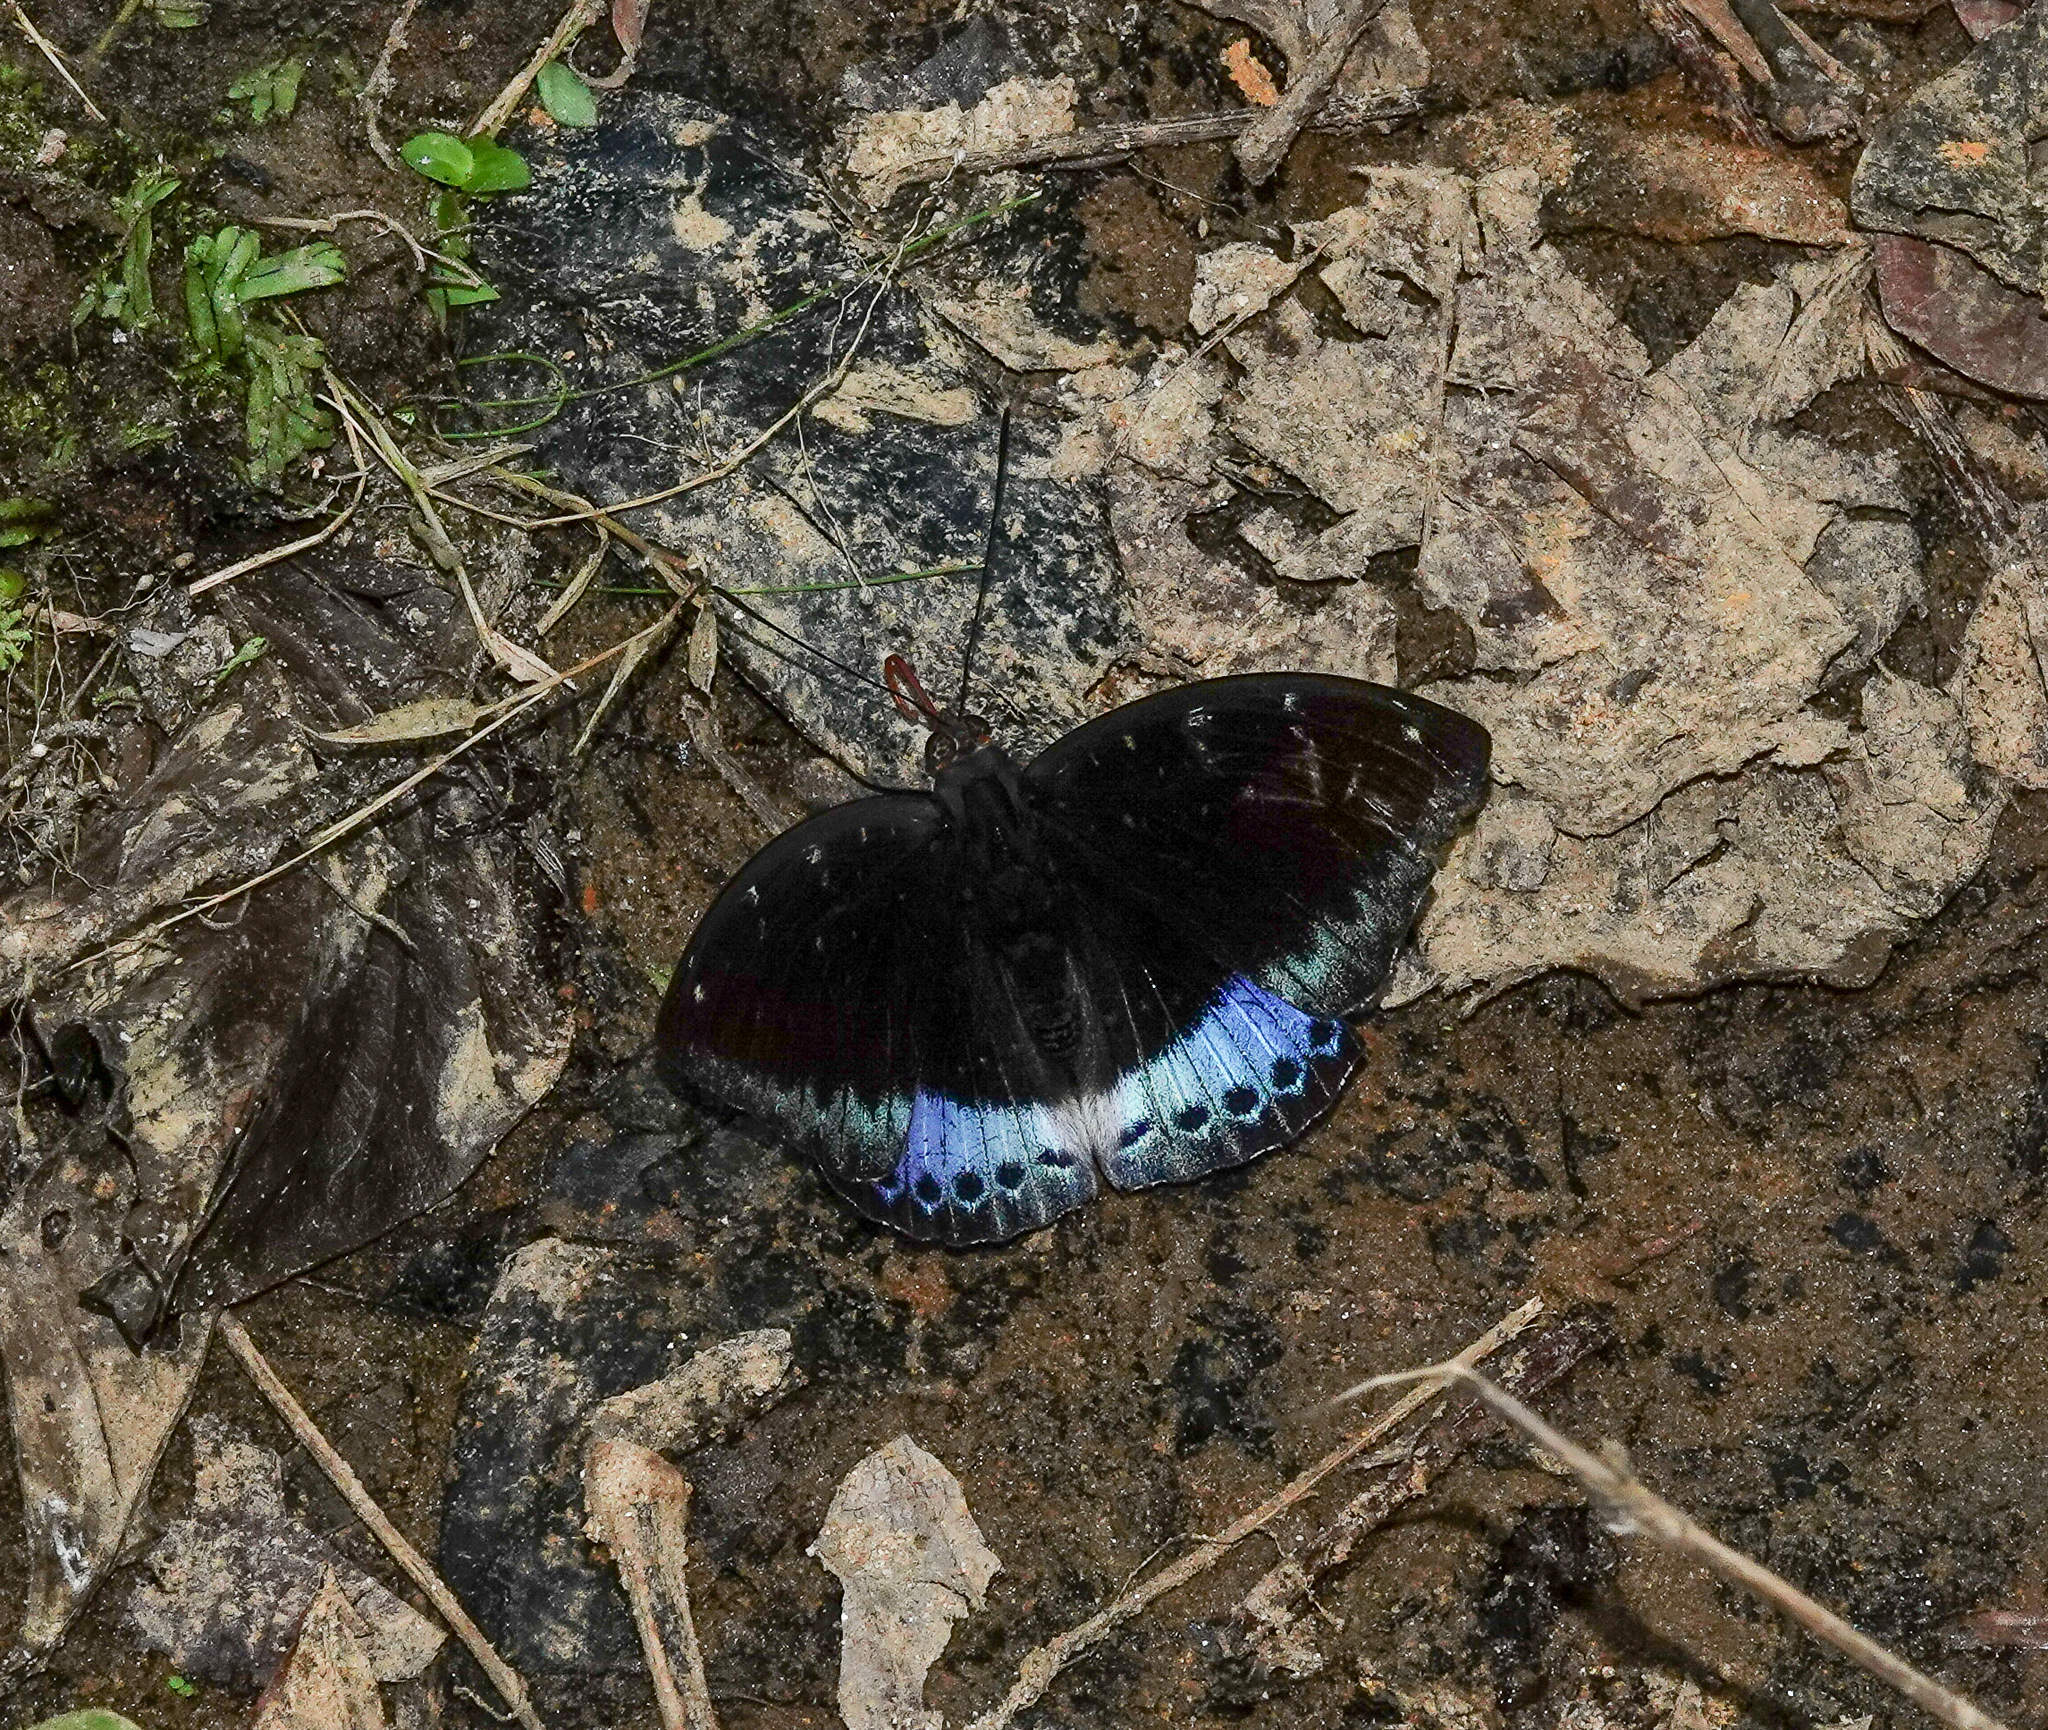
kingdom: Animalia
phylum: Arthropoda
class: Insecta
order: Lepidoptera
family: Nymphalidae
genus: Lexias
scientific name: Lexias dirtea
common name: Black-tipped archduke
